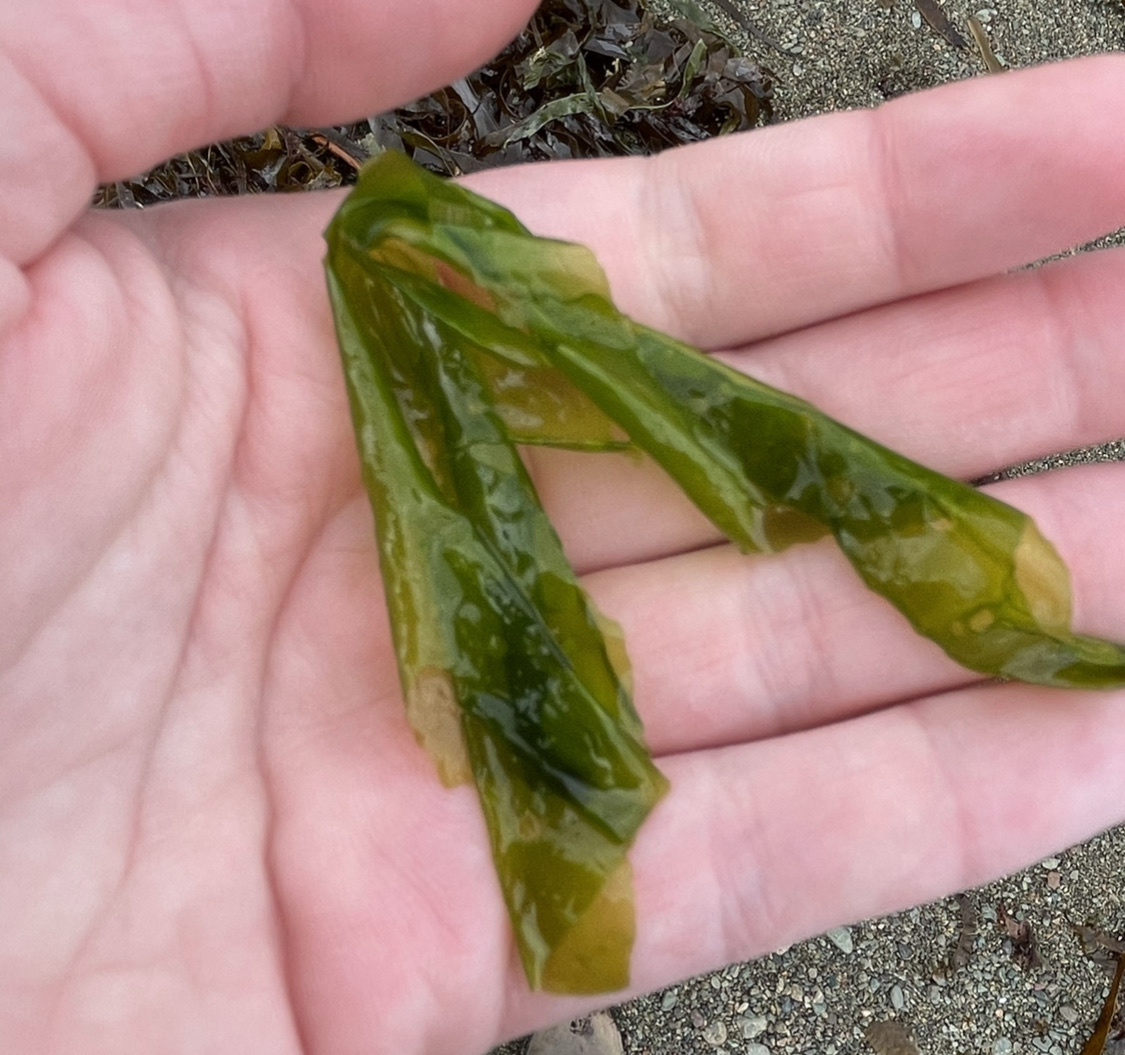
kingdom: Plantae
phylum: Chlorophyta
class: Ulvophyceae
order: Ulvales
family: Ulvaceae
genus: Ulva
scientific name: Ulva lactuca
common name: Sea lettuce
